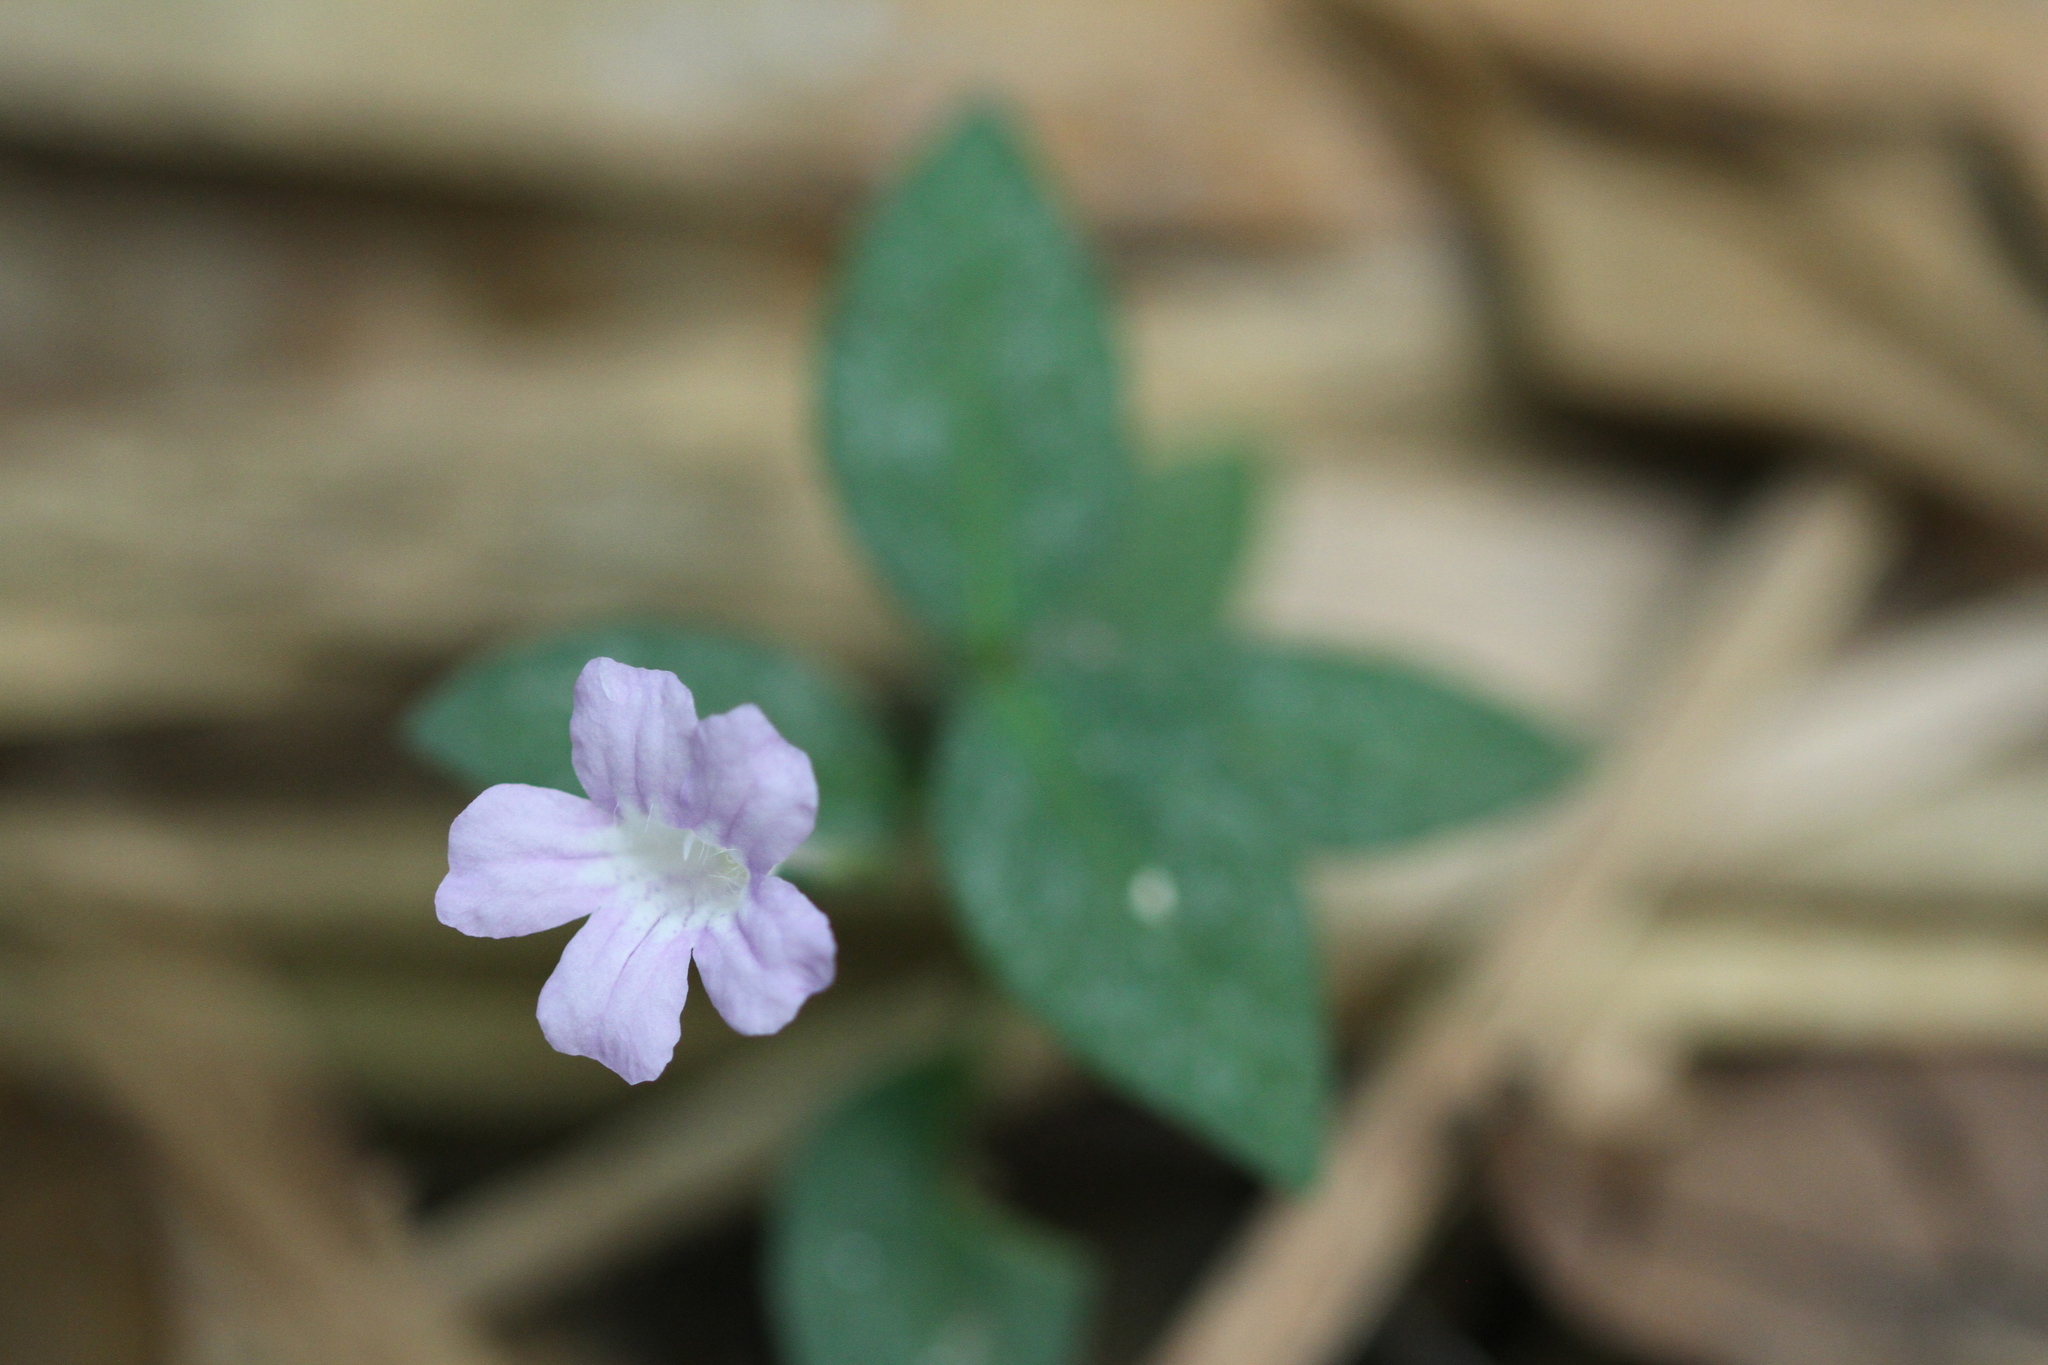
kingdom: Plantae
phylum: Tracheophyta
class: Magnoliopsida
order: Lamiales
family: Acanthaceae
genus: Ruellia
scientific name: Ruellia rubra
